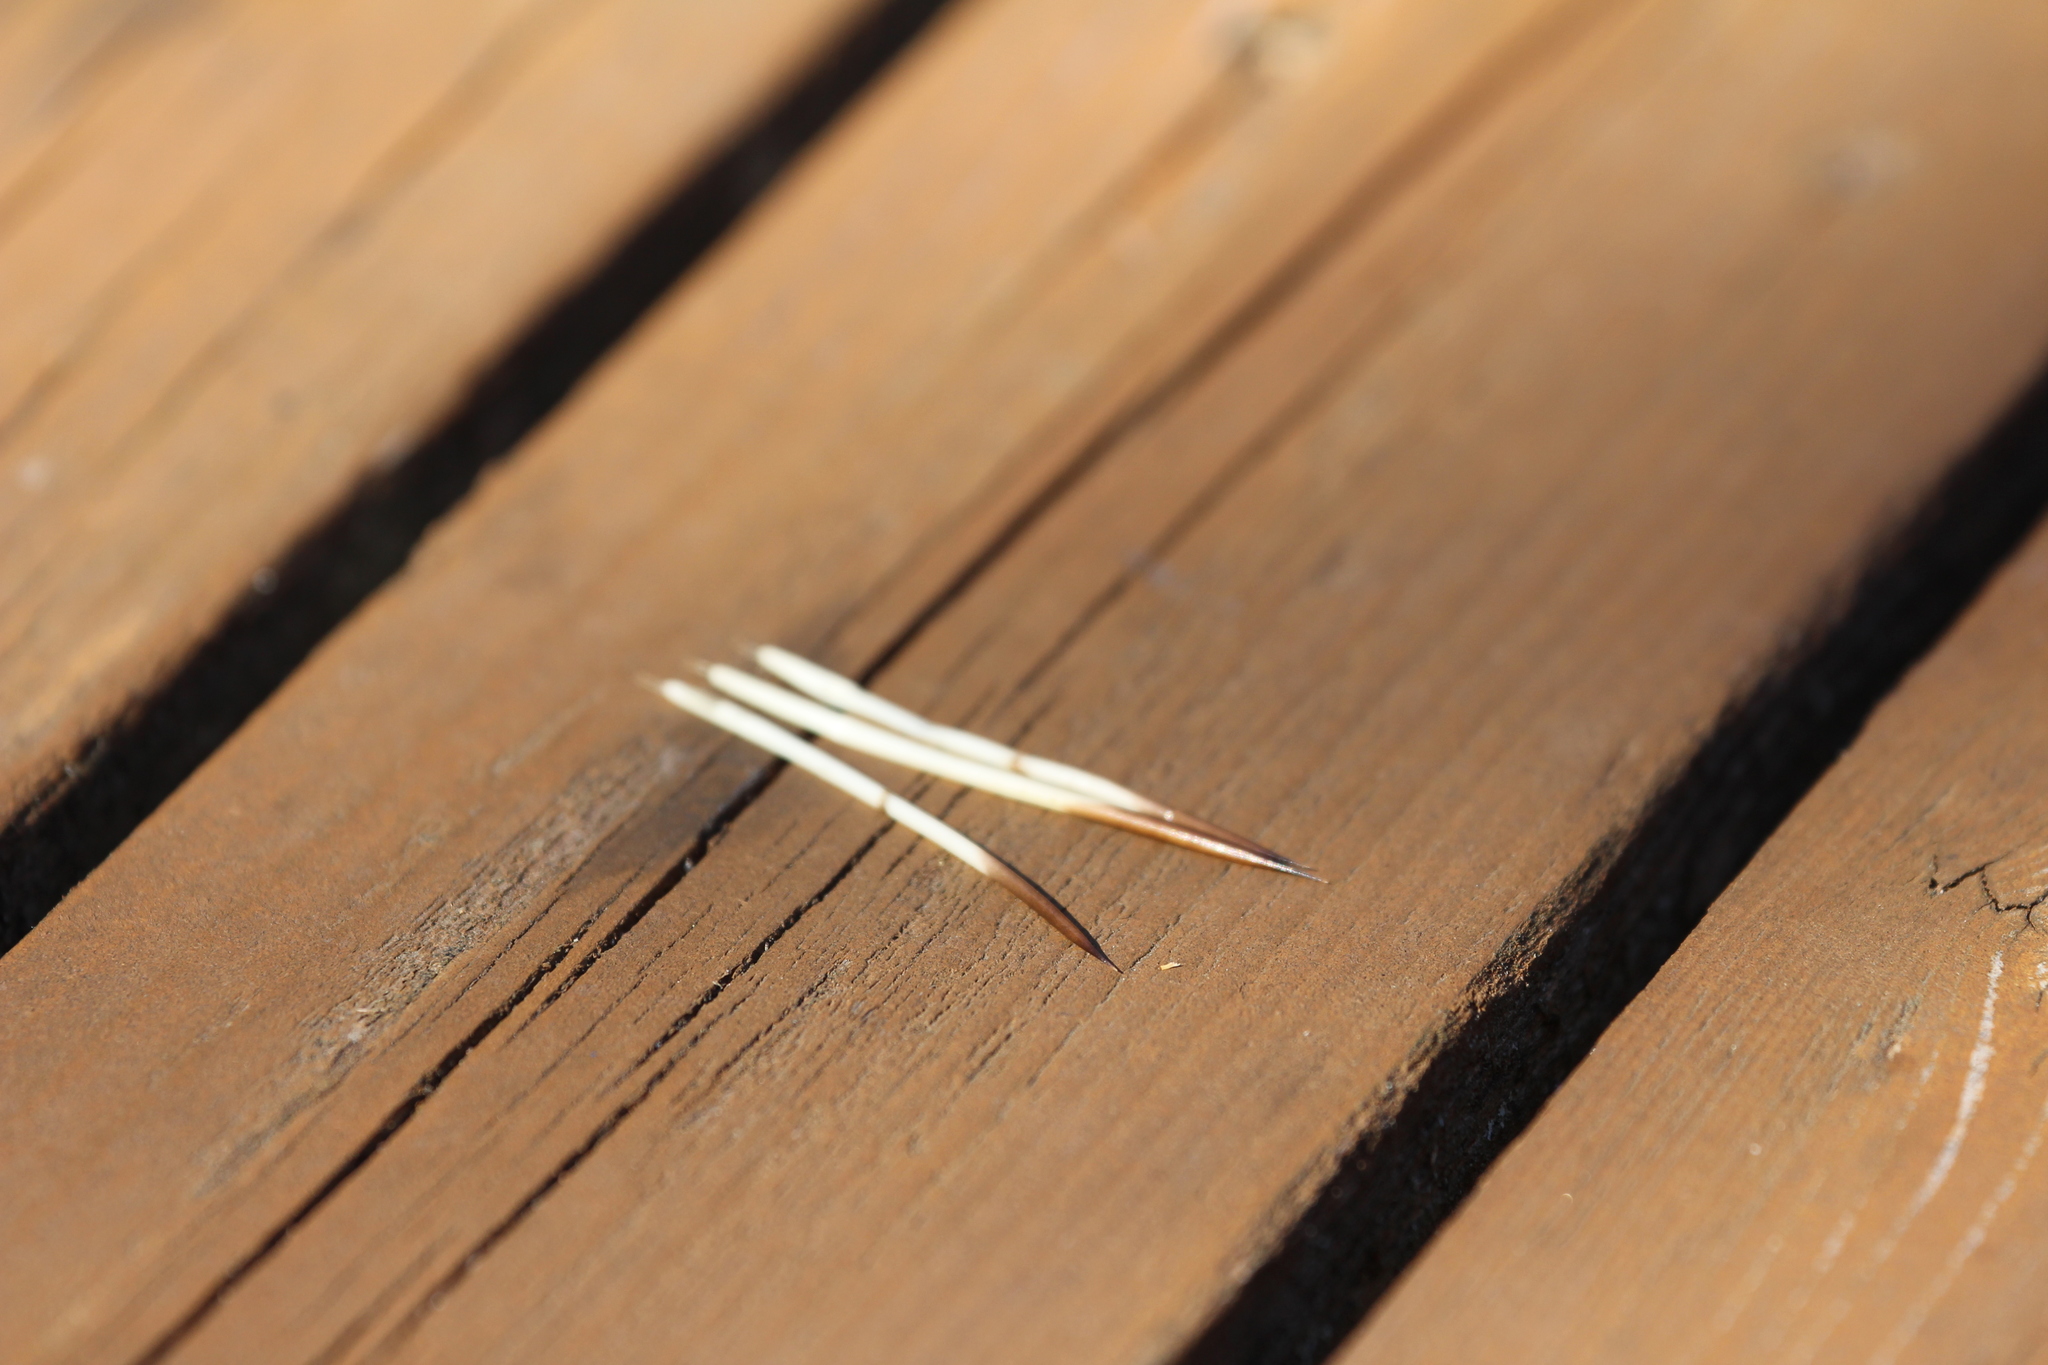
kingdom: Animalia
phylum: Chordata
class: Mammalia
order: Rodentia
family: Erethizontidae
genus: Erethizon
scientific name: Erethizon dorsatus
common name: North american porcupine
